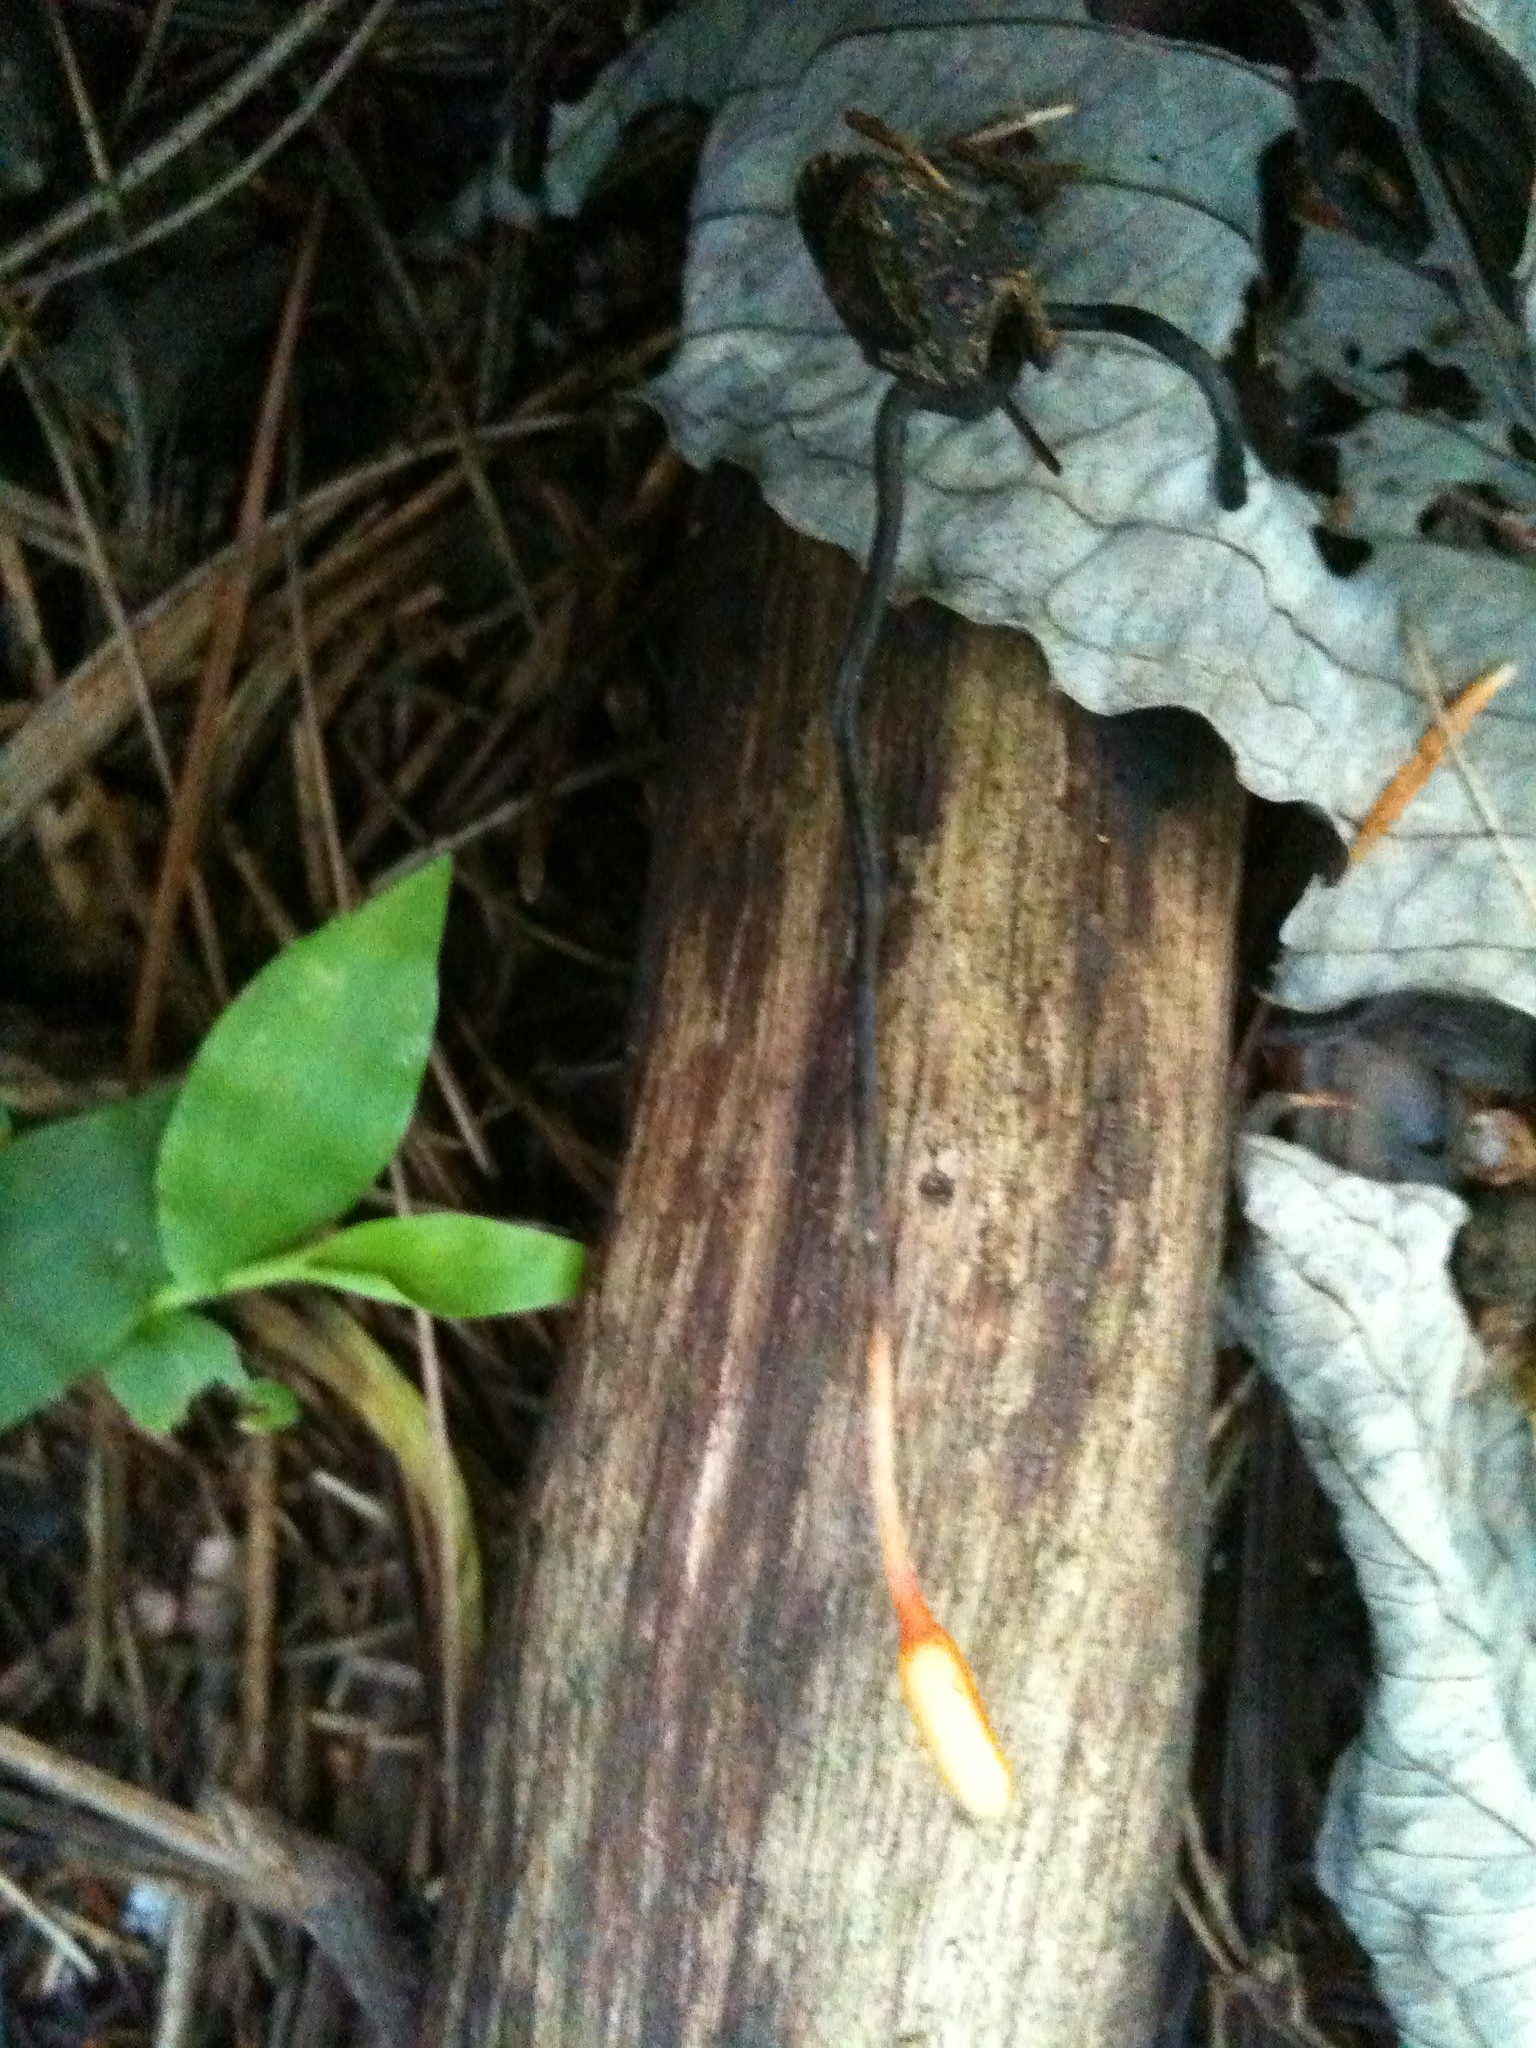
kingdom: Fungi
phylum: Ascomycota
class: Sordariomycetes
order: Hypocreales
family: Ophiocordycipitaceae
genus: Ophiocordyceps
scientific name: Ophiocordyceps nutans
